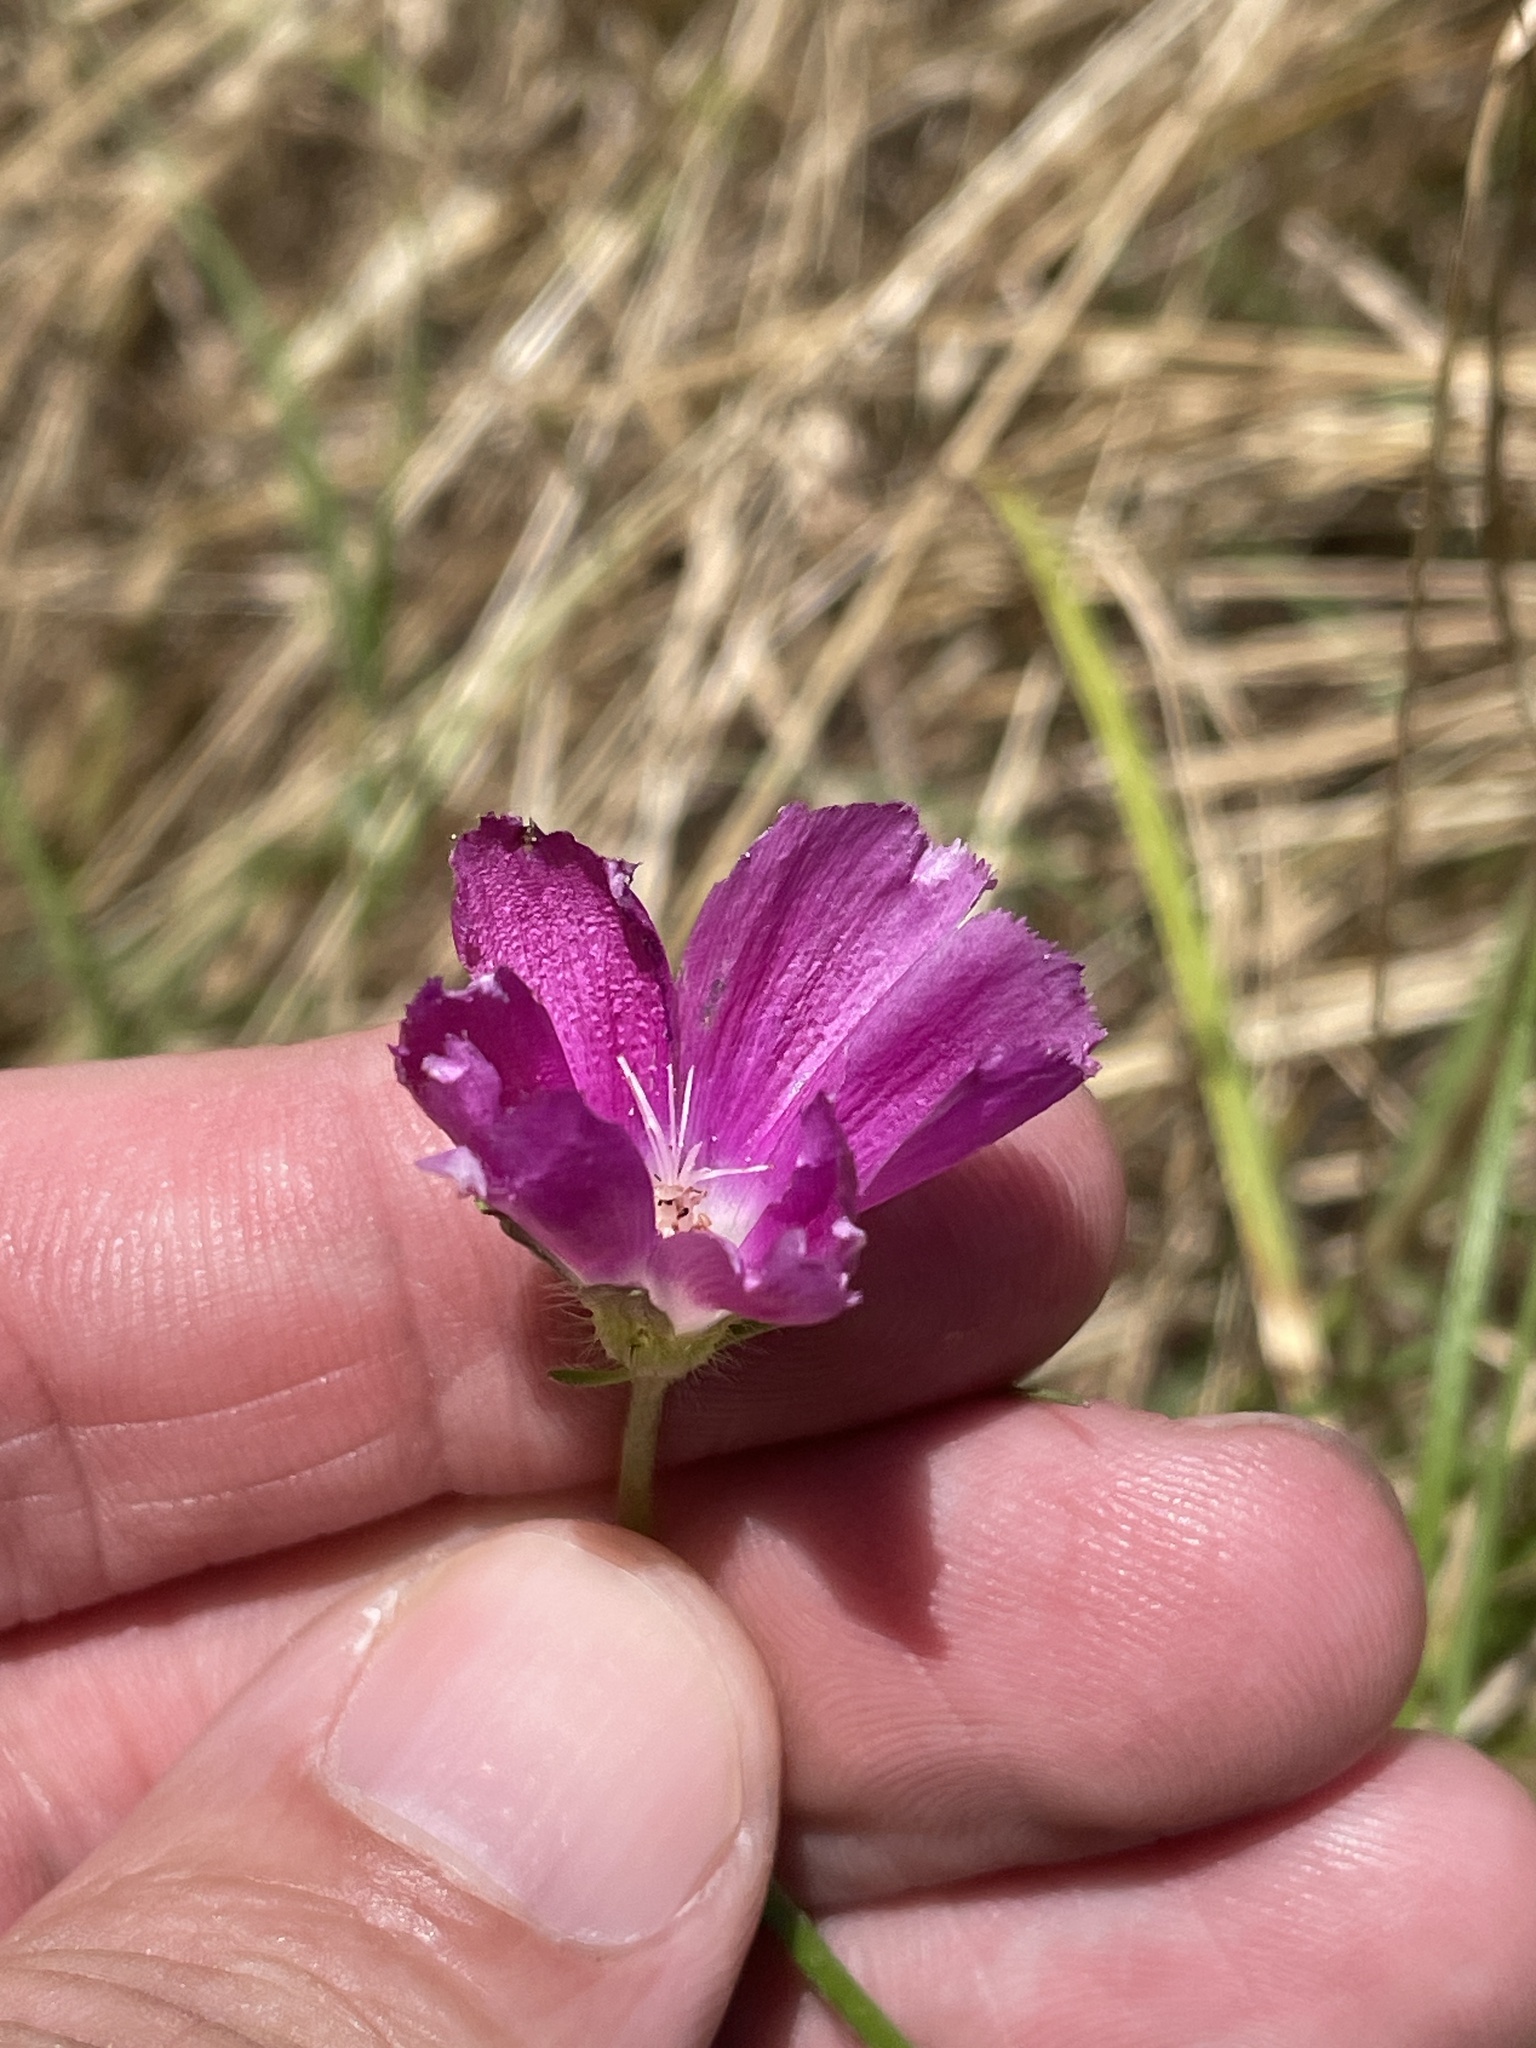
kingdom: Plantae
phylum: Tracheophyta
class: Magnoliopsida
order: Malvales
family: Malvaceae
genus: Callirhoe
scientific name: Callirhoe involucrata
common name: Purple poppy-mallow
